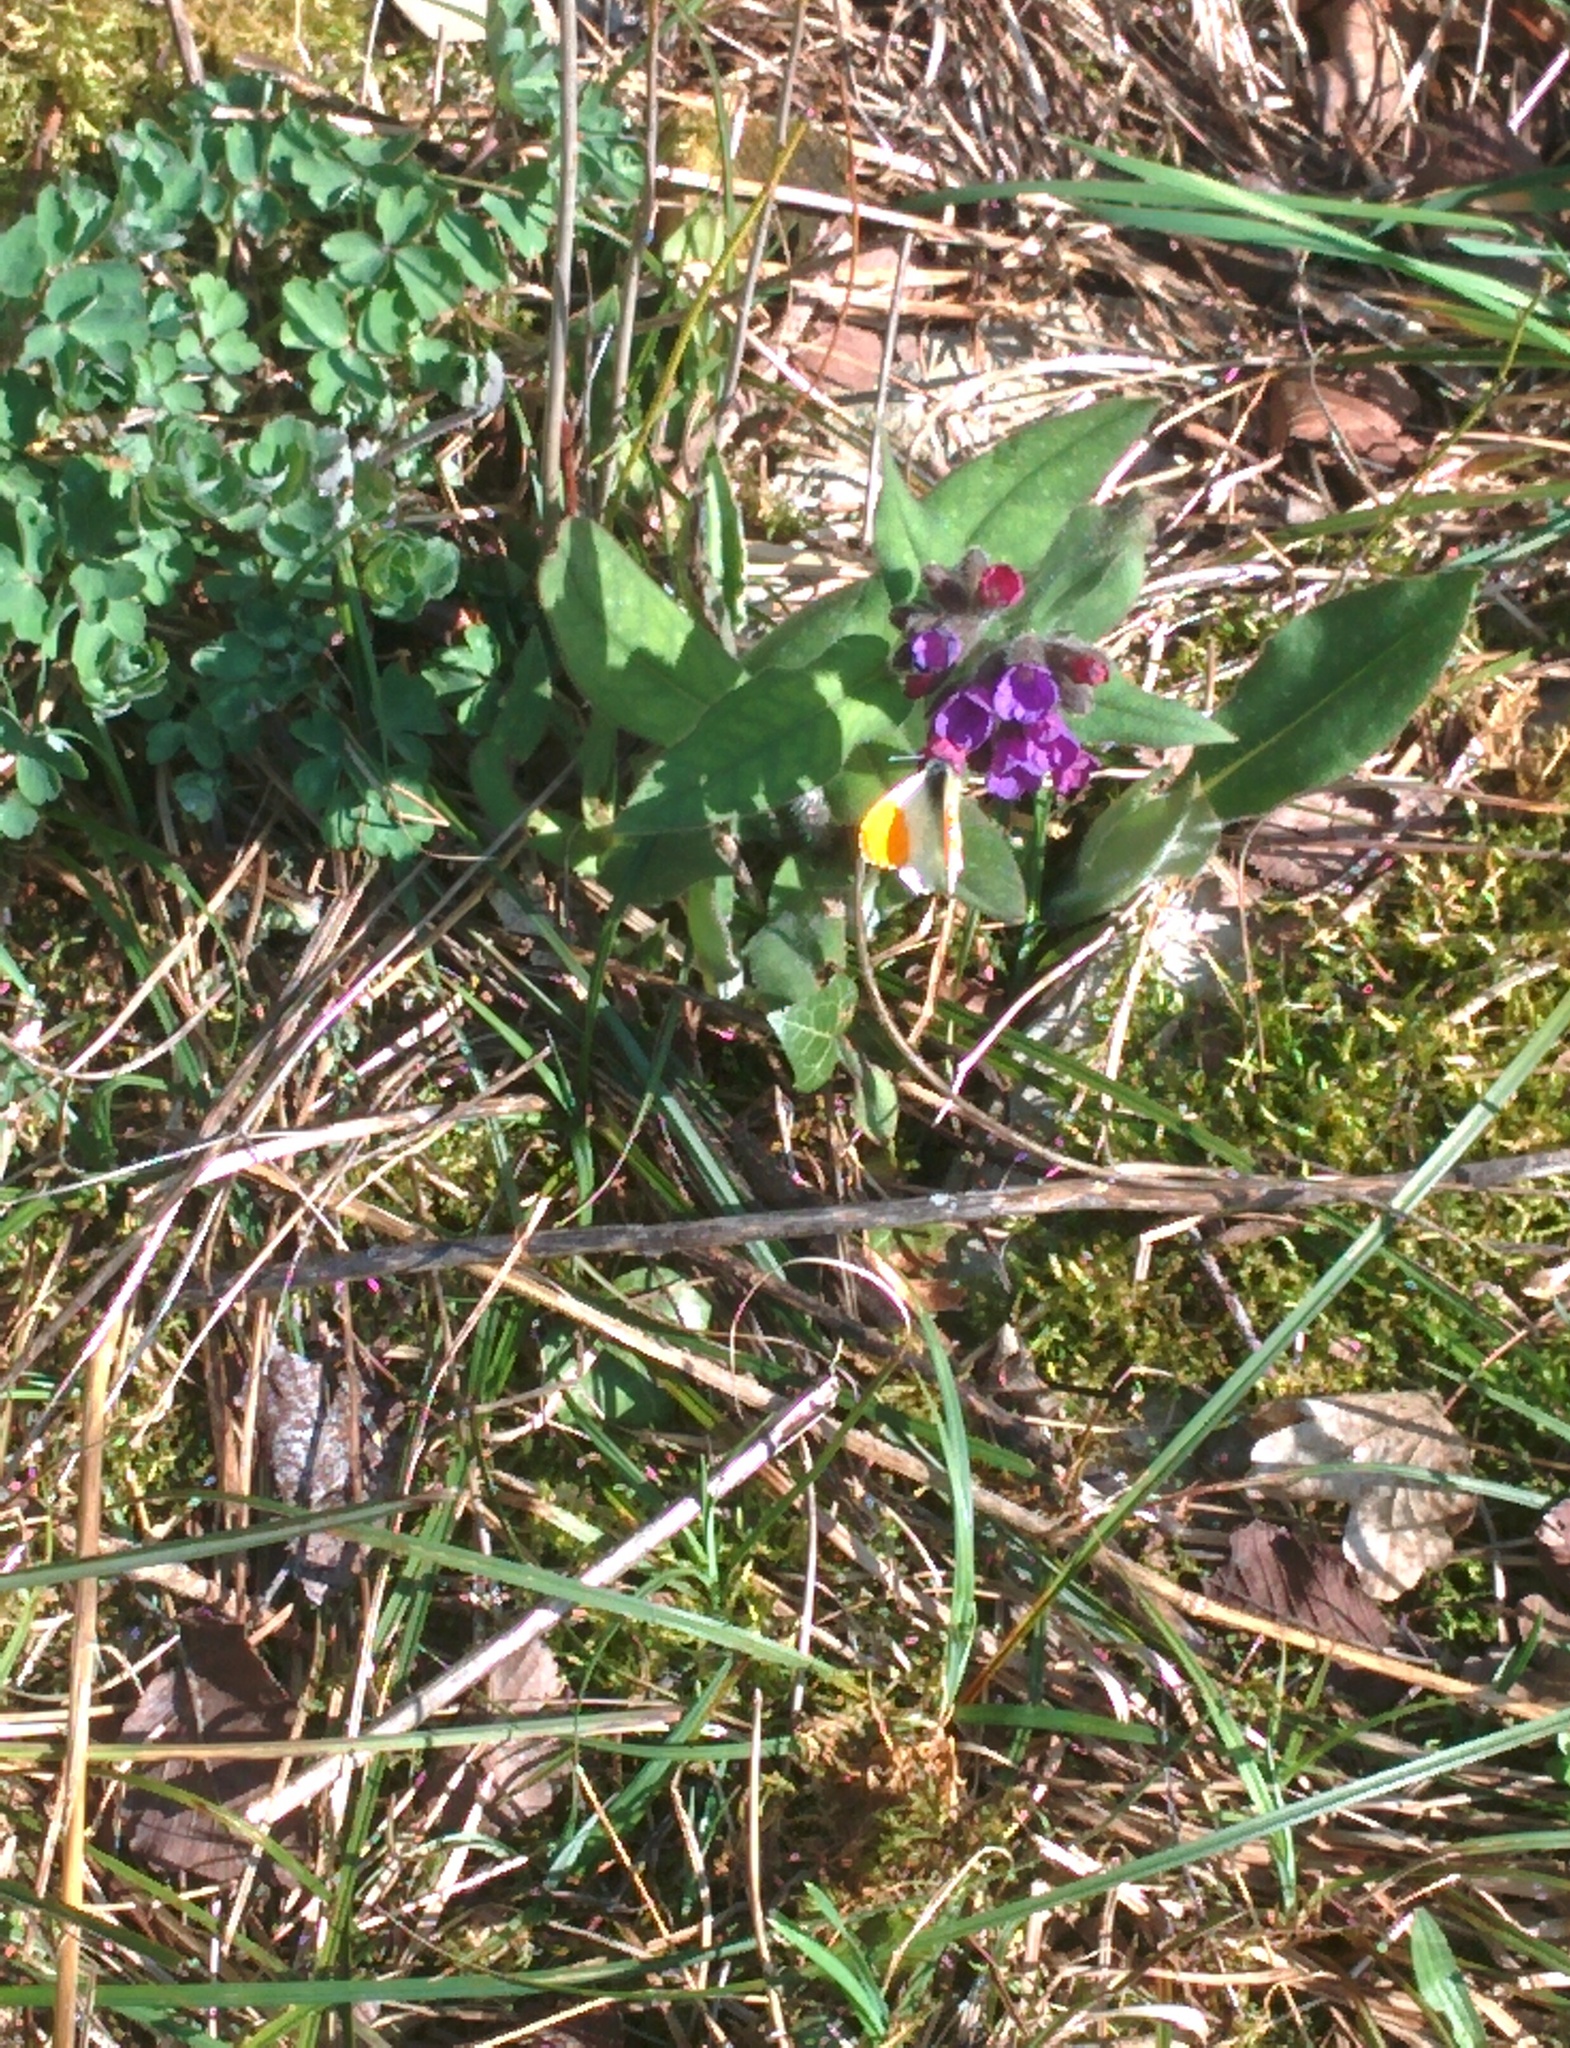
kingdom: Animalia
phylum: Arthropoda
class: Insecta
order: Lepidoptera
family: Pieridae
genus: Anthocharis
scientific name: Anthocharis cardamines
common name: Orange-tip
